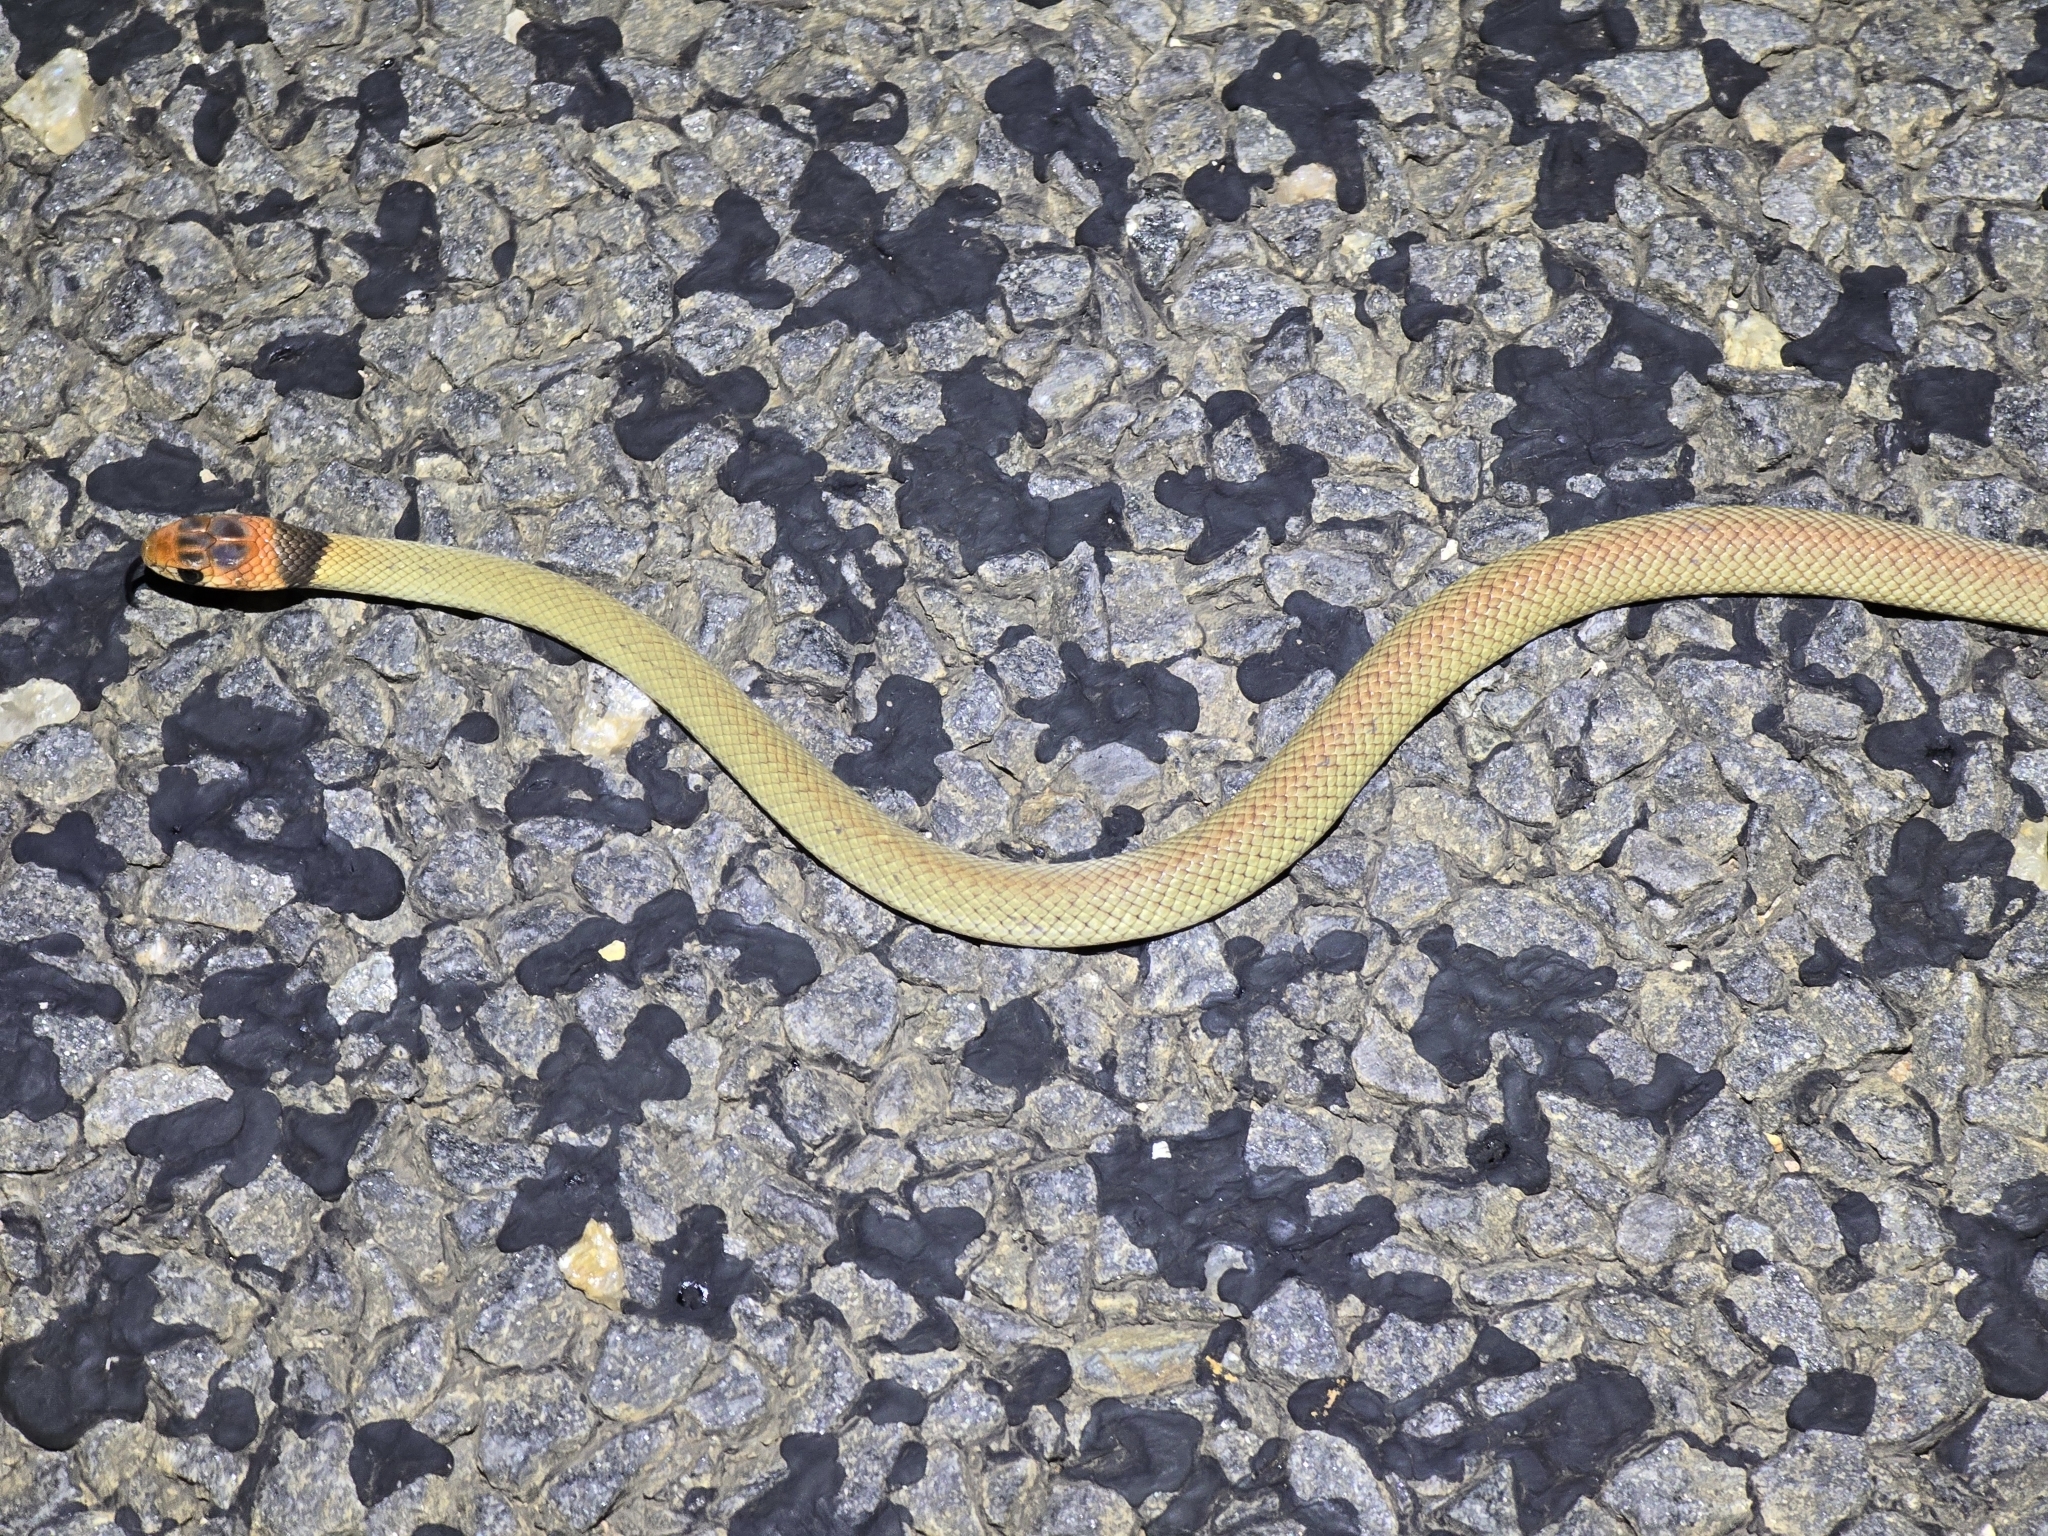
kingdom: Animalia
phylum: Chordata
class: Squamata
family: Elapidae
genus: Pseudonaja
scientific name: Pseudonaja textilis
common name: Eastern brown snake
